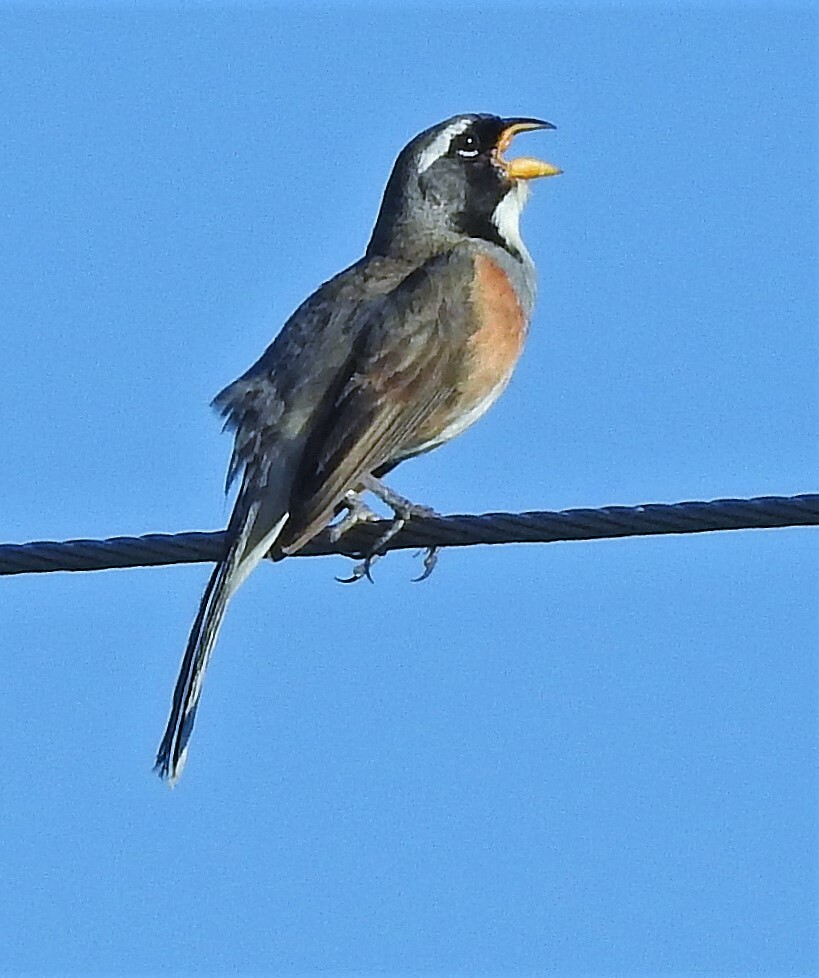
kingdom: Animalia
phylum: Chordata
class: Aves
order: Passeriformes
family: Thraupidae
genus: Saltatricula
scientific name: Saltatricula multicolor
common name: Many-colored chaco finch
